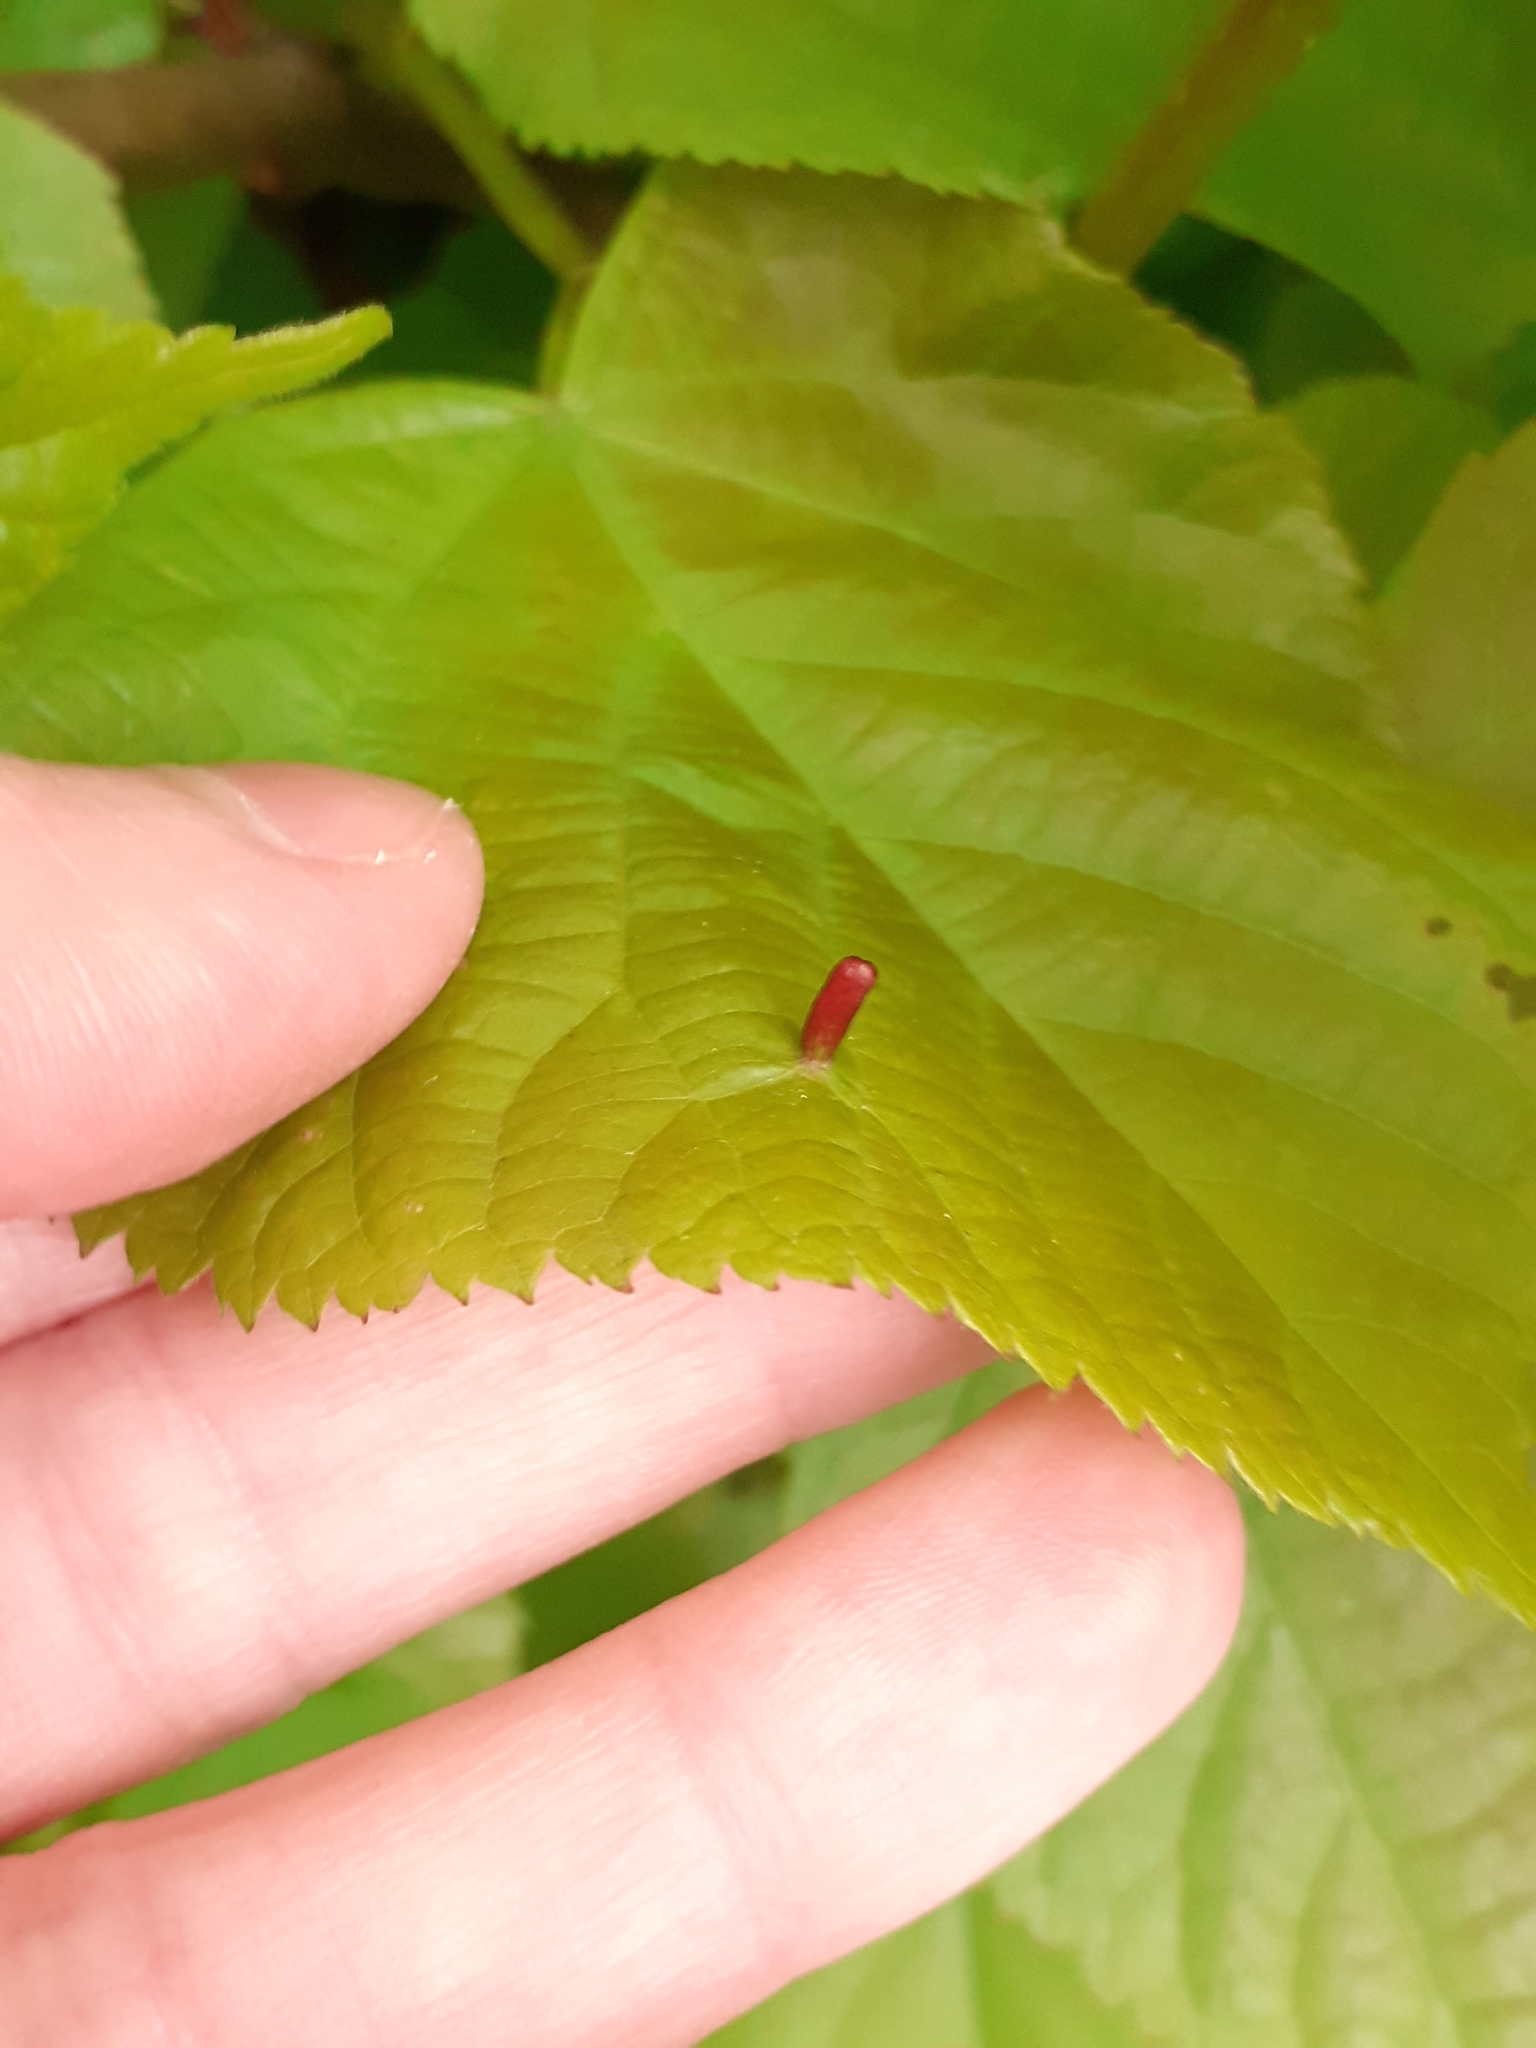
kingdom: Animalia
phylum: Arthropoda
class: Arachnida
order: Trombidiformes
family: Eriophyidae
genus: Eriophyes
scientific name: Eriophyes tiliae
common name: Red nail gall mite
